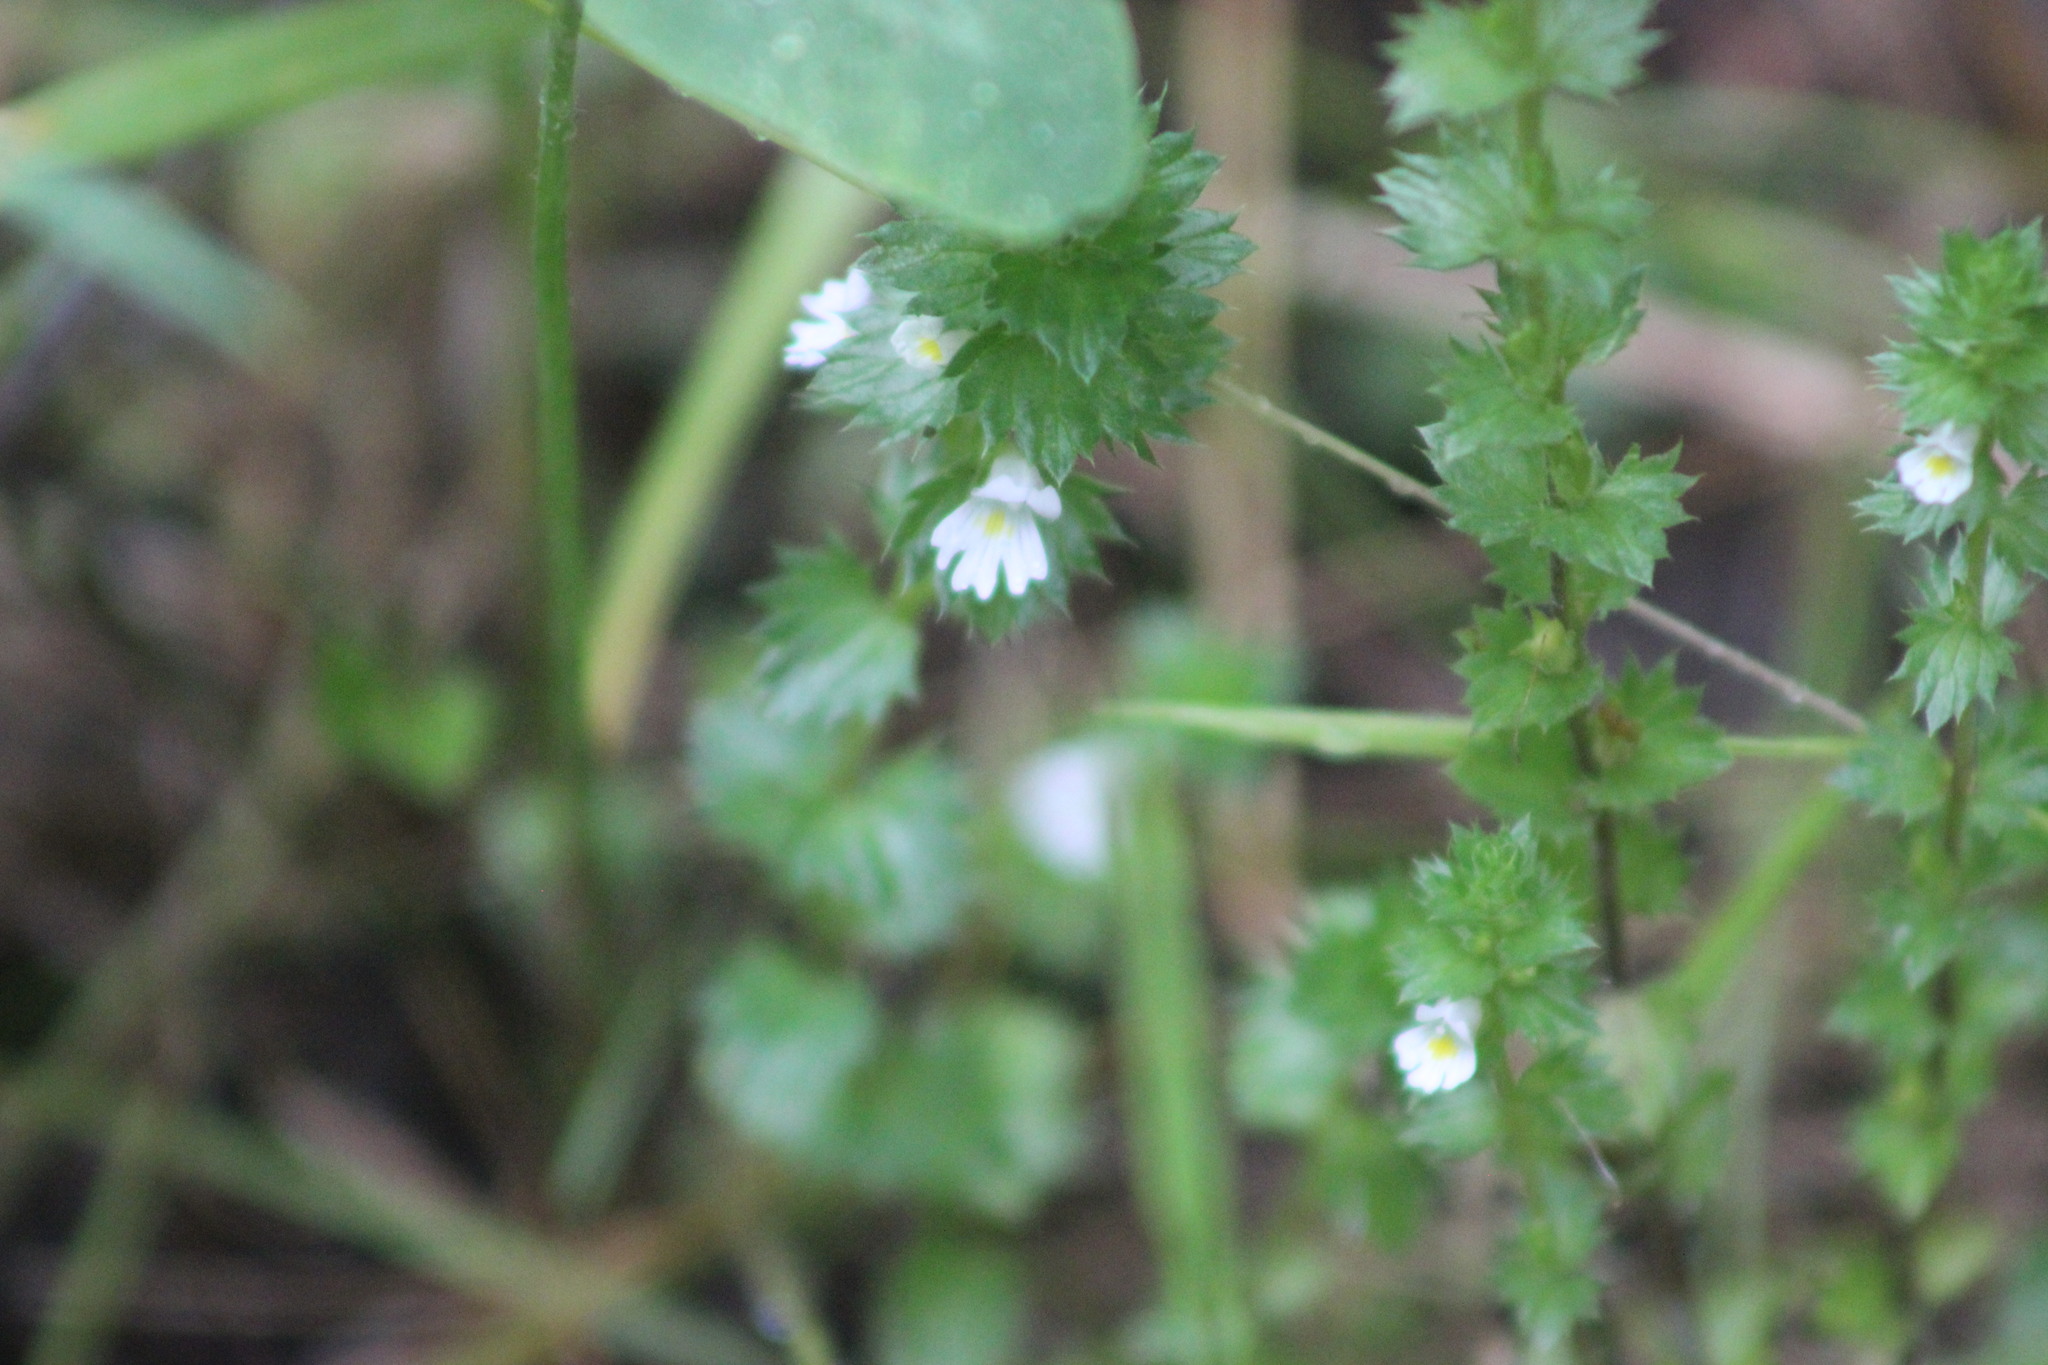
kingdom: Plantae
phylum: Tracheophyta
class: Magnoliopsida
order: Lamiales
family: Orobanchaceae
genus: Euphrasia
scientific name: Euphrasia
